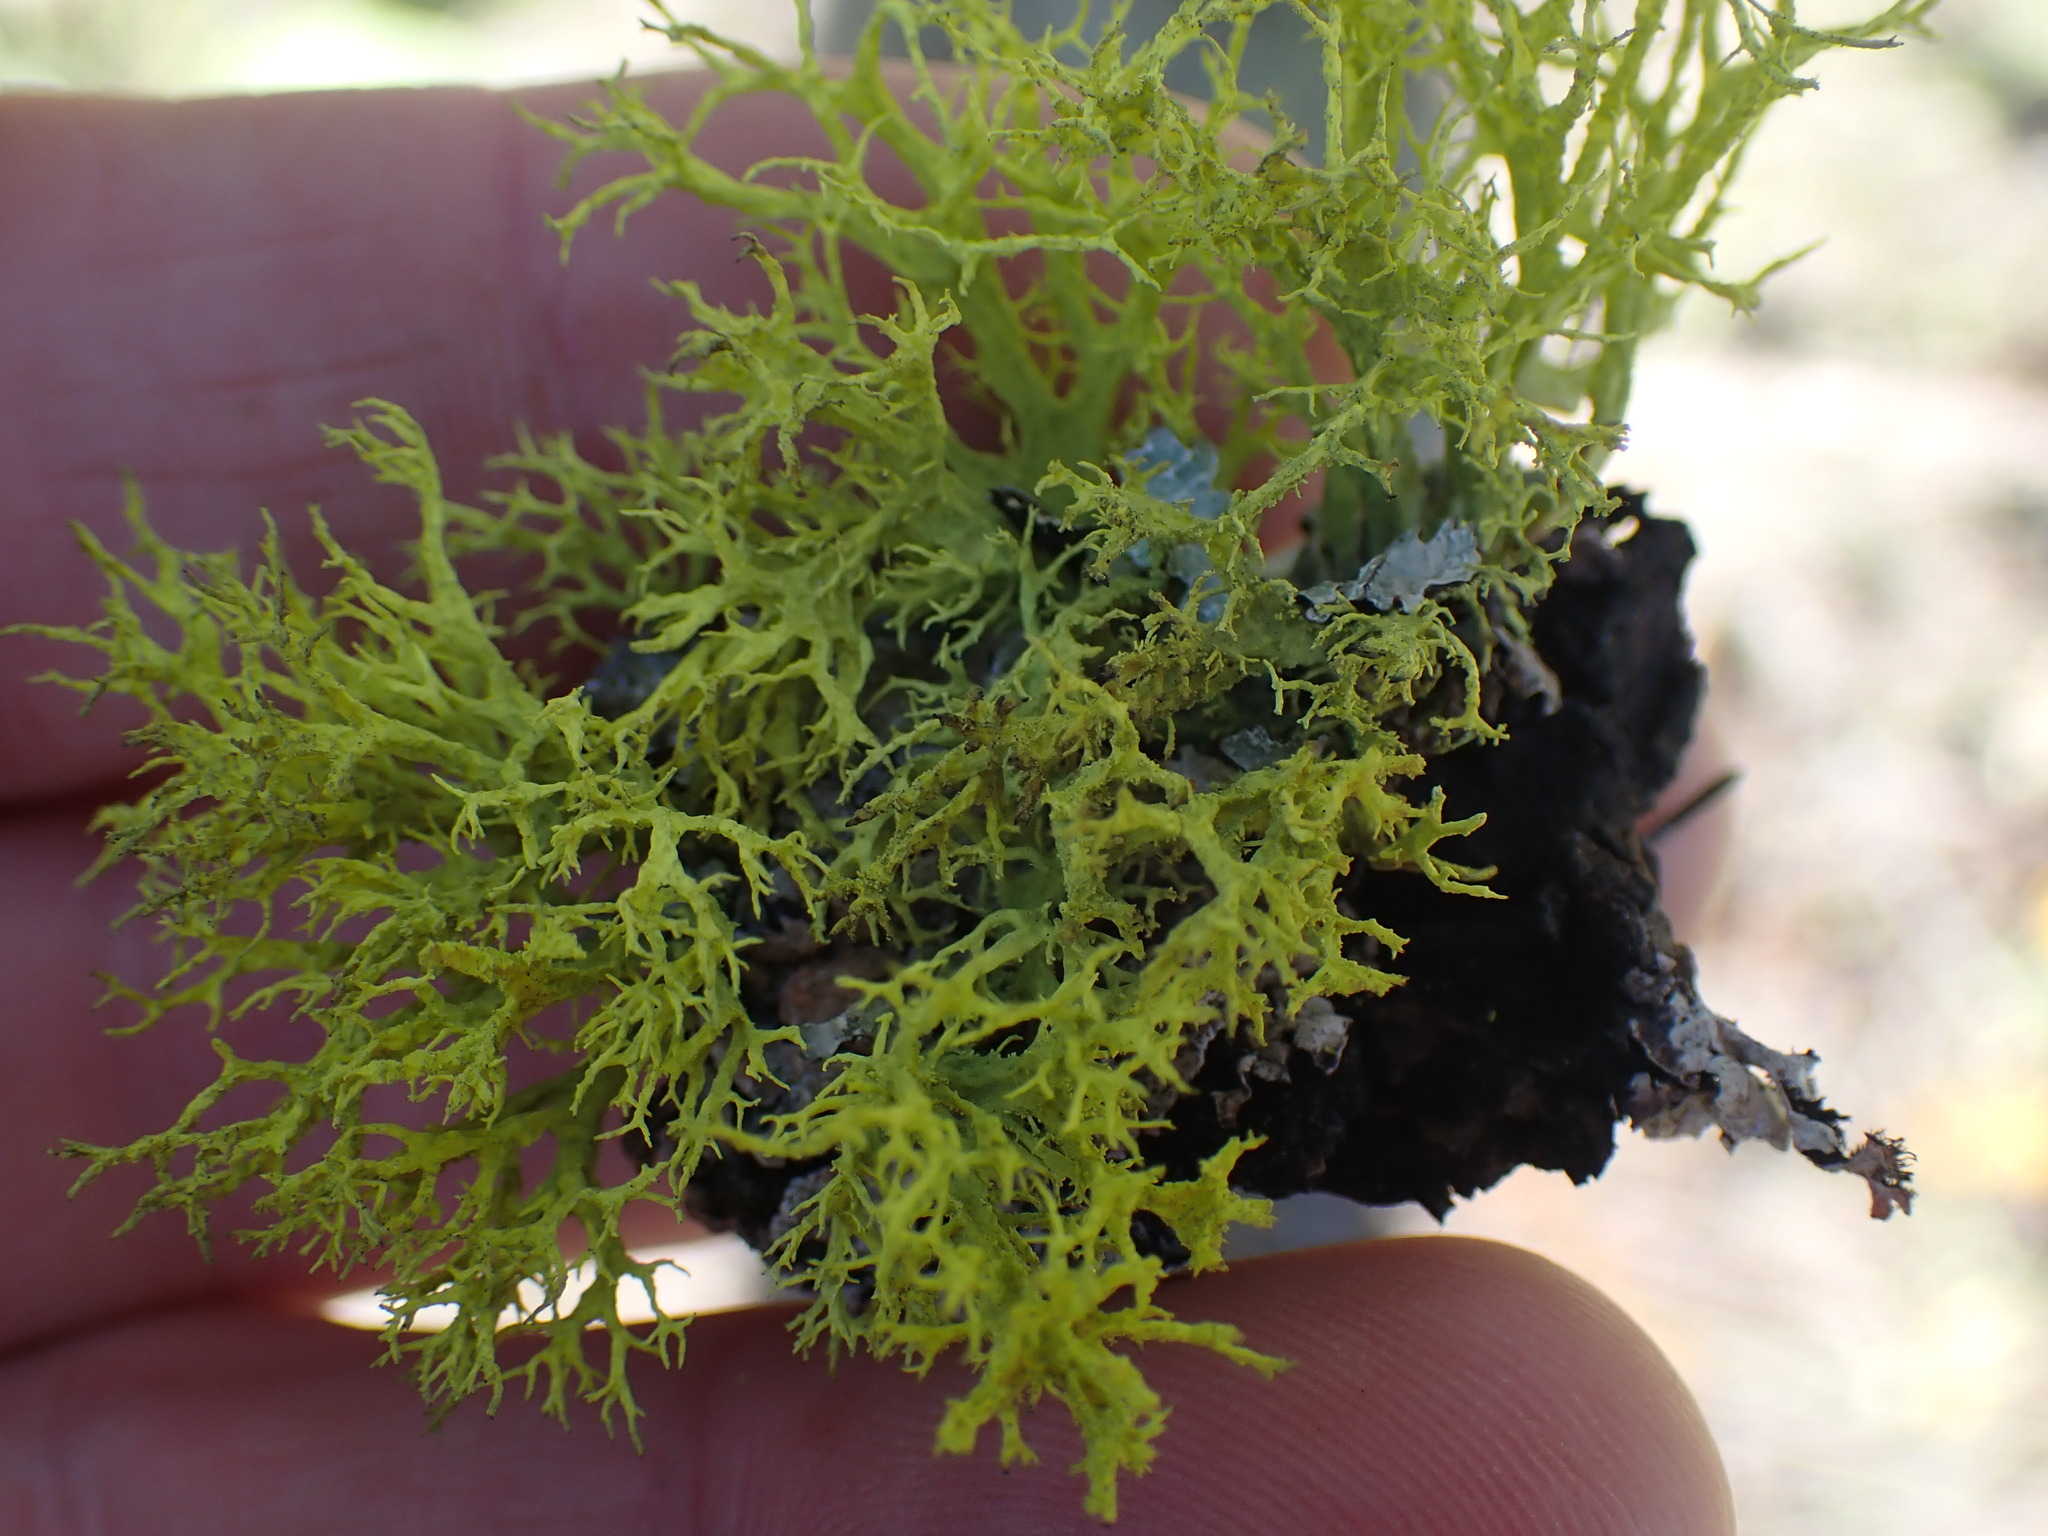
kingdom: Fungi
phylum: Ascomycota
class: Lecanoromycetes
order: Lecanorales
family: Parmeliaceae
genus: Letharia
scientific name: Letharia vulpina
